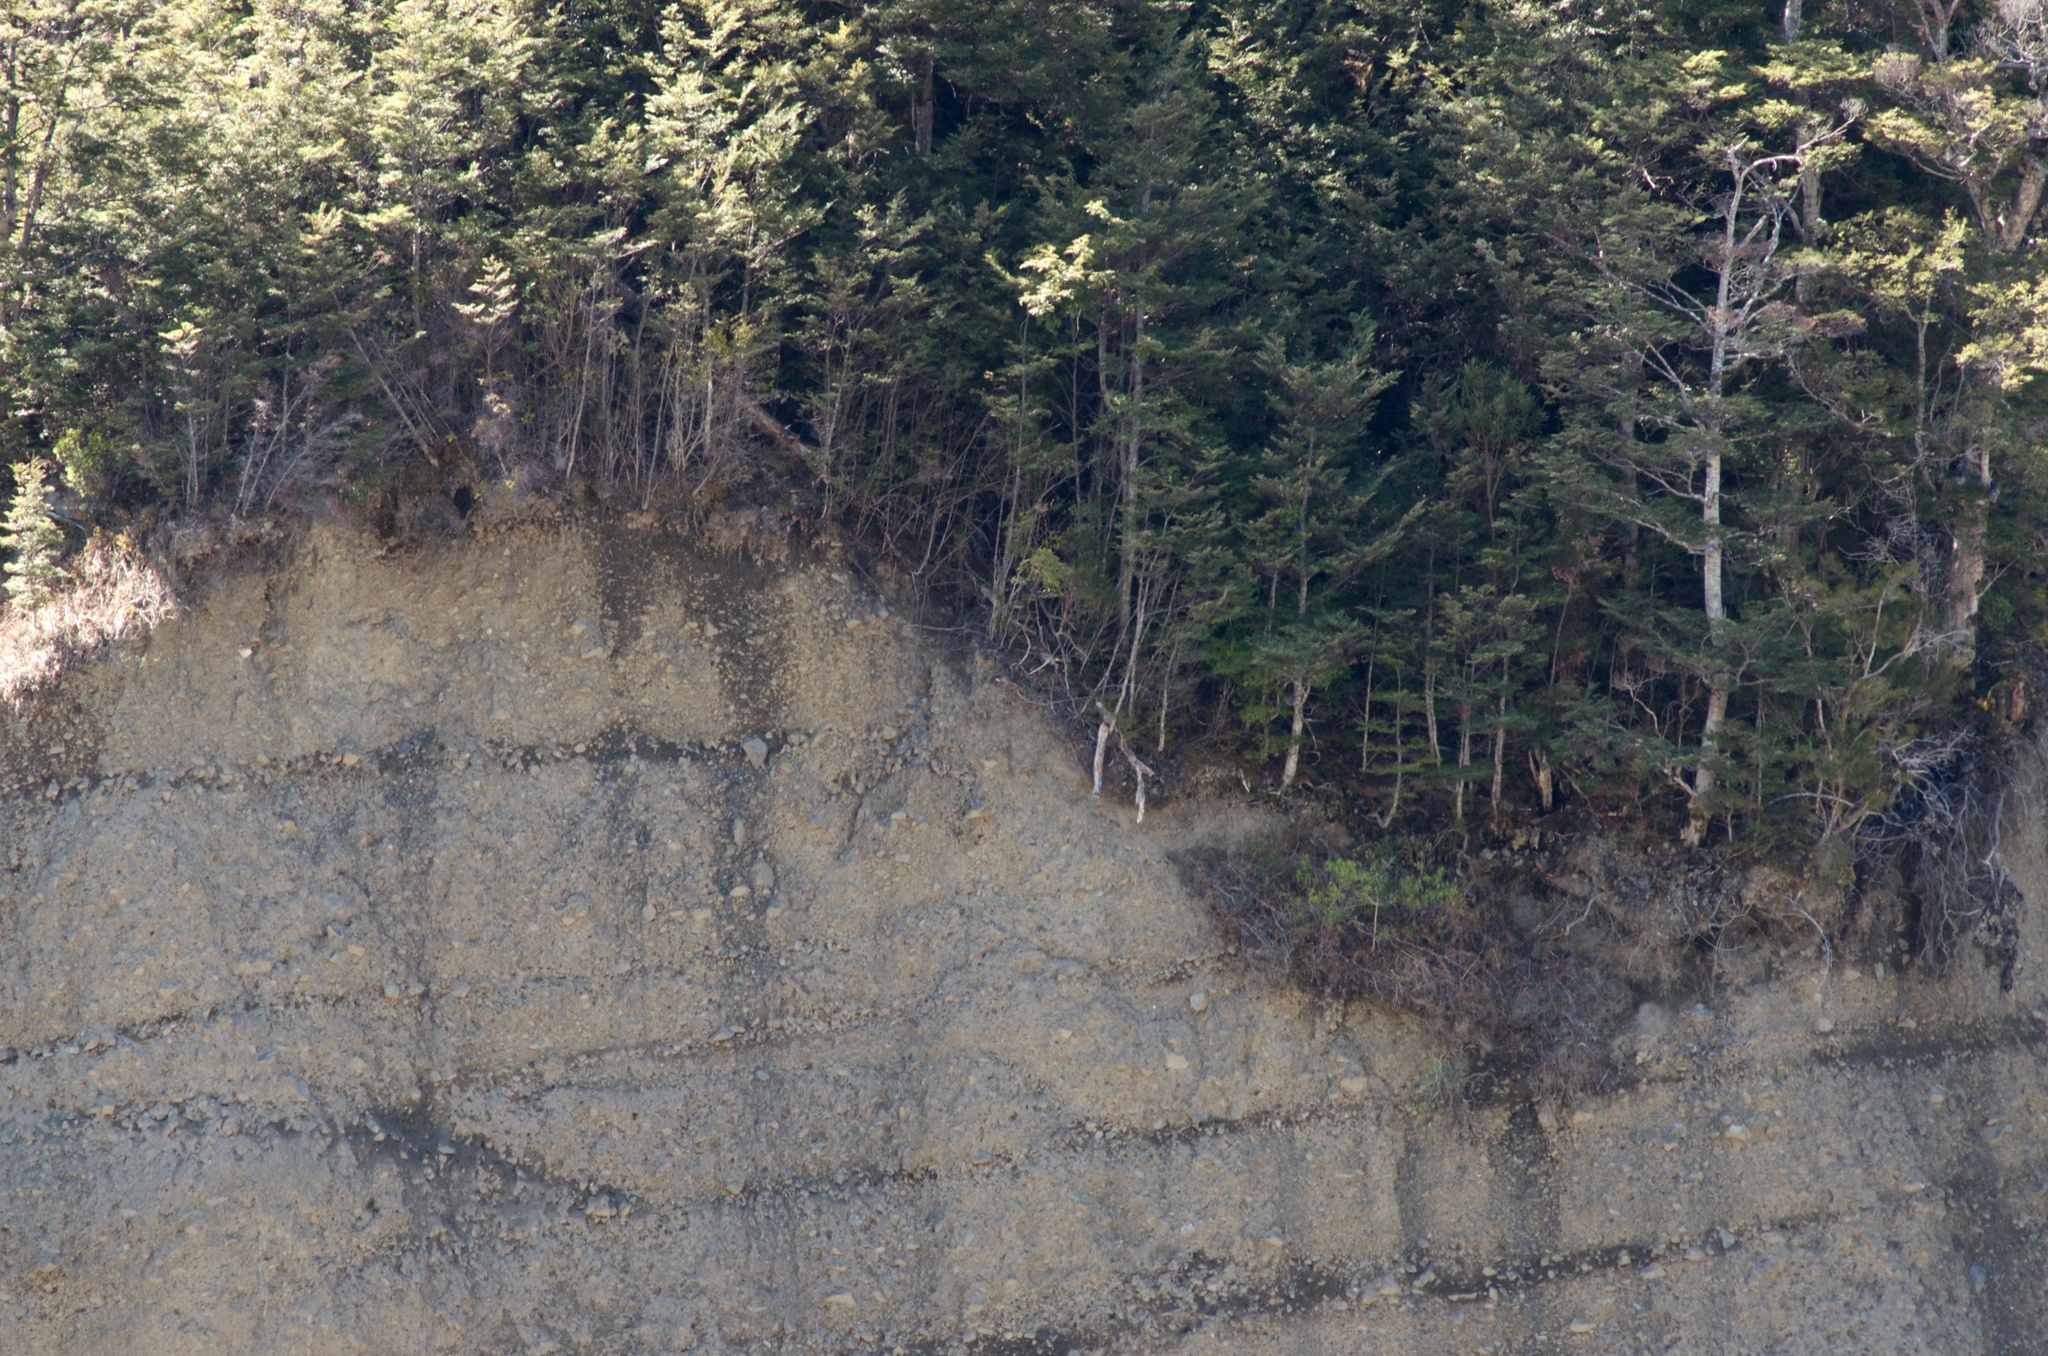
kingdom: Plantae
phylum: Tracheophyta
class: Magnoliopsida
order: Fagales
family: Nothofagaceae
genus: Nothofagus
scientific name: Nothofagus cliffortioides
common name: Mountain beech
